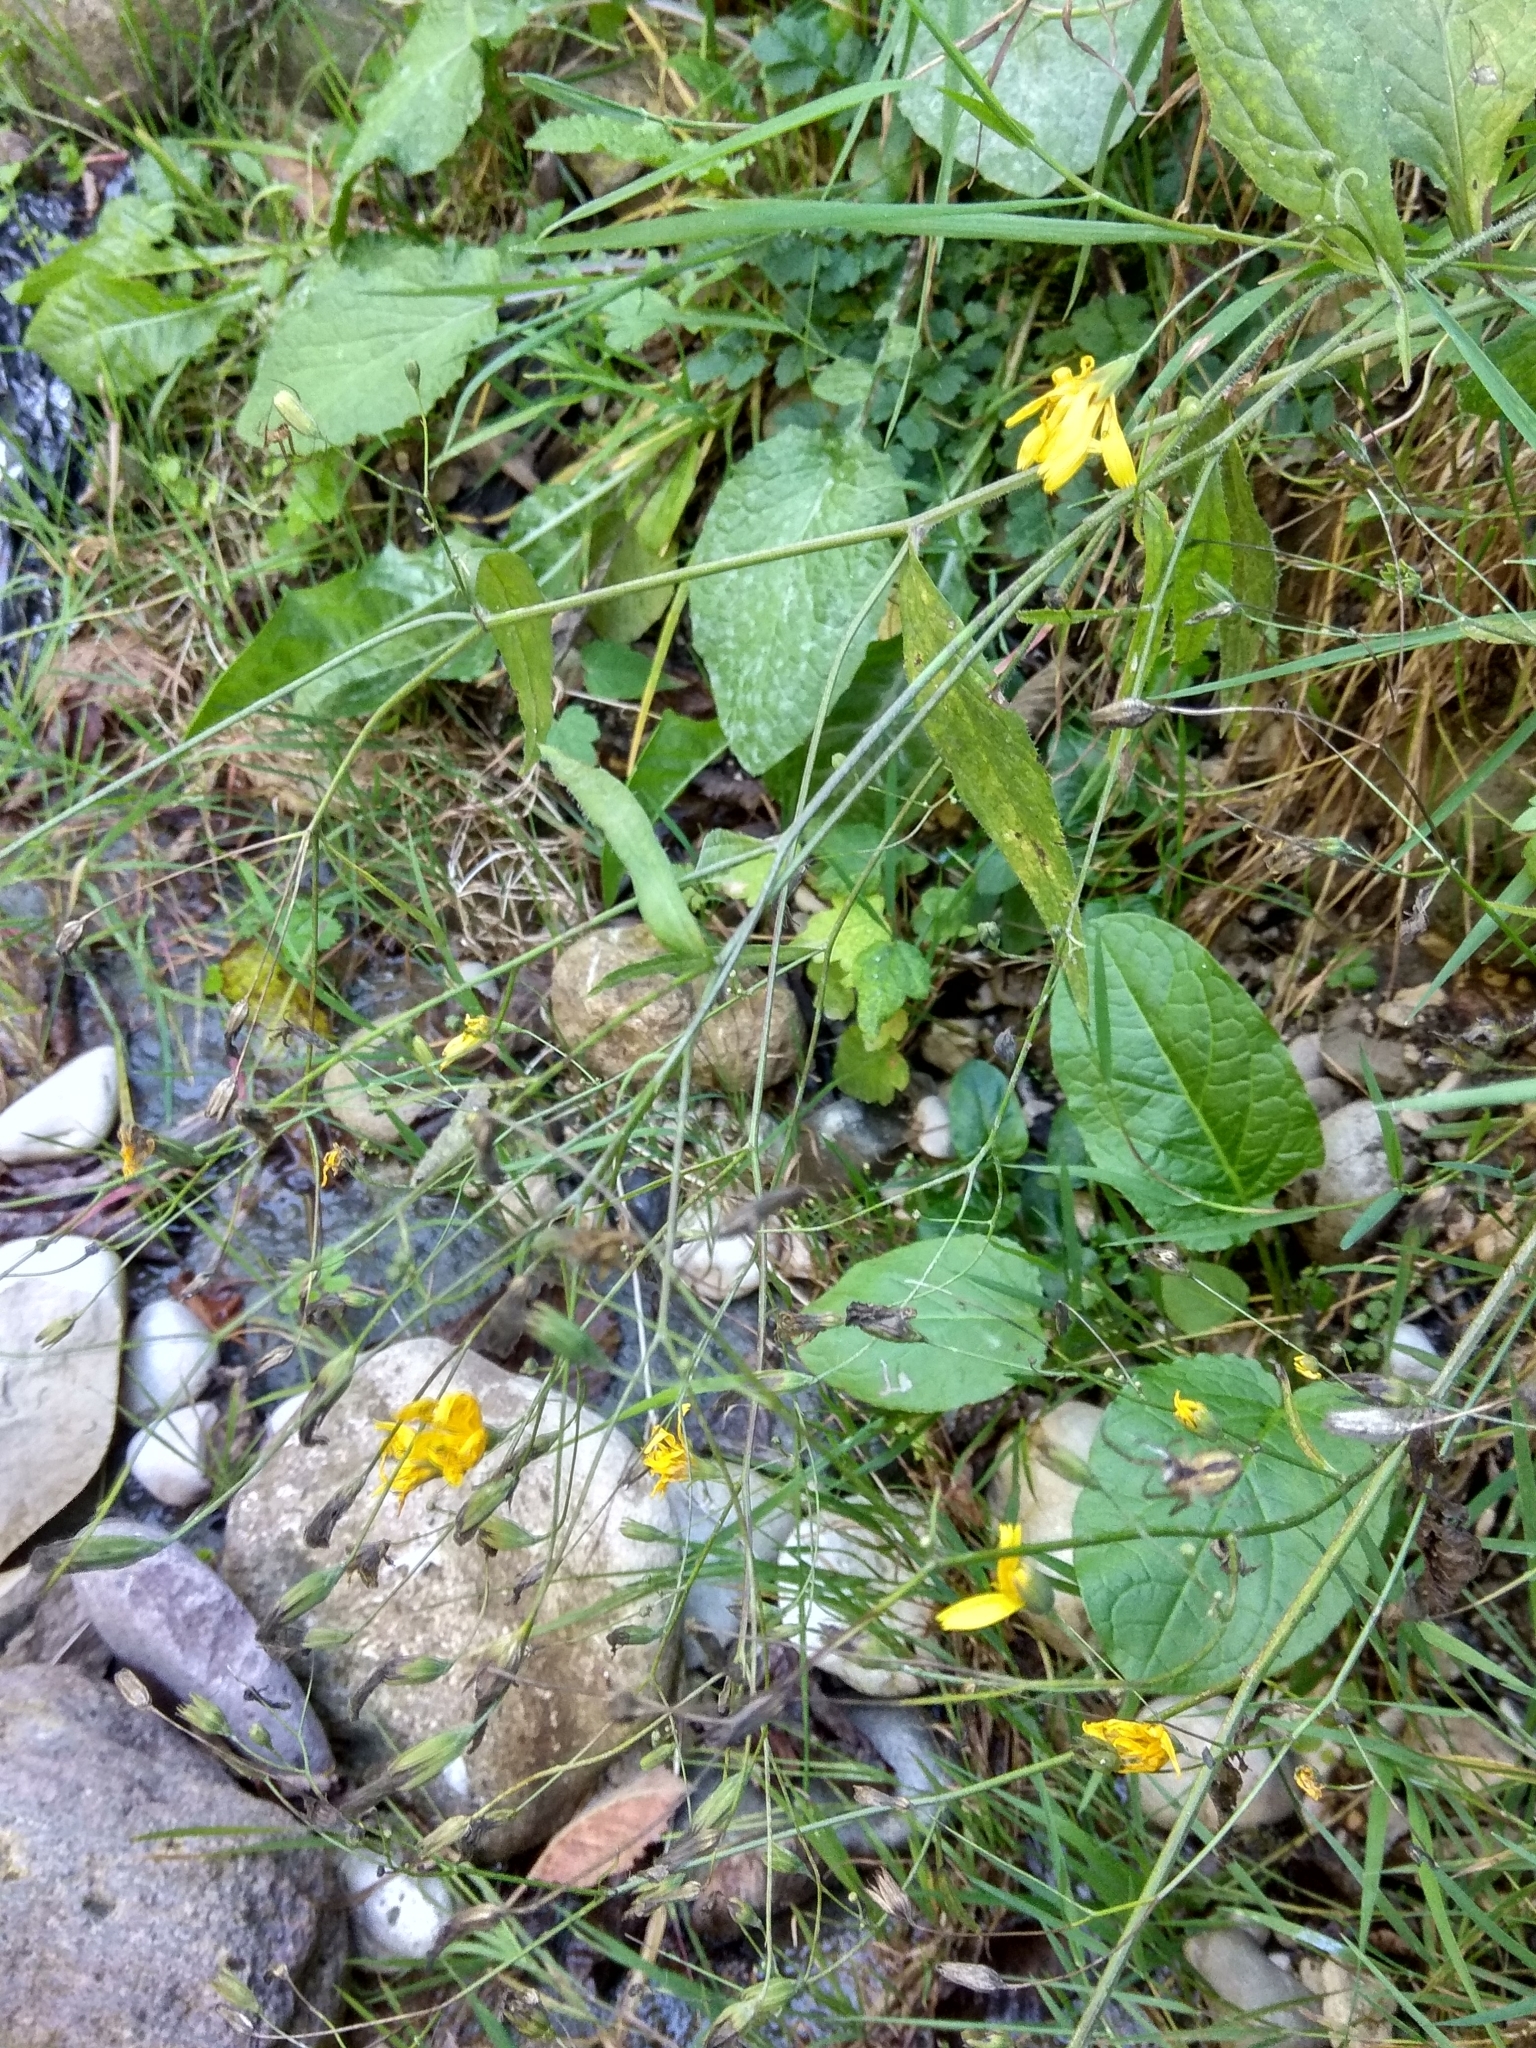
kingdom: Plantae
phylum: Tracheophyta
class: Magnoliopsida
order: Asterales
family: Asteraceae
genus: Lapsana
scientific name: Lapsana communis
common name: Nipplewort
